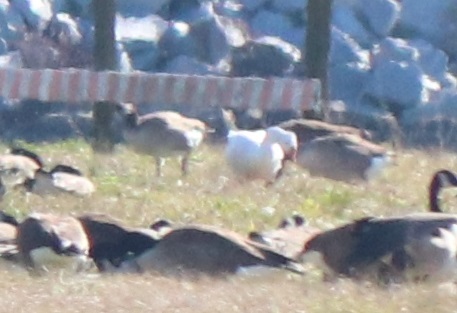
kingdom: Animalia
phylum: Chordata
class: Aves
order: Anseriformes
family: Anatidae
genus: Anser
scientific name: Anser caerulescens
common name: Snow goose
